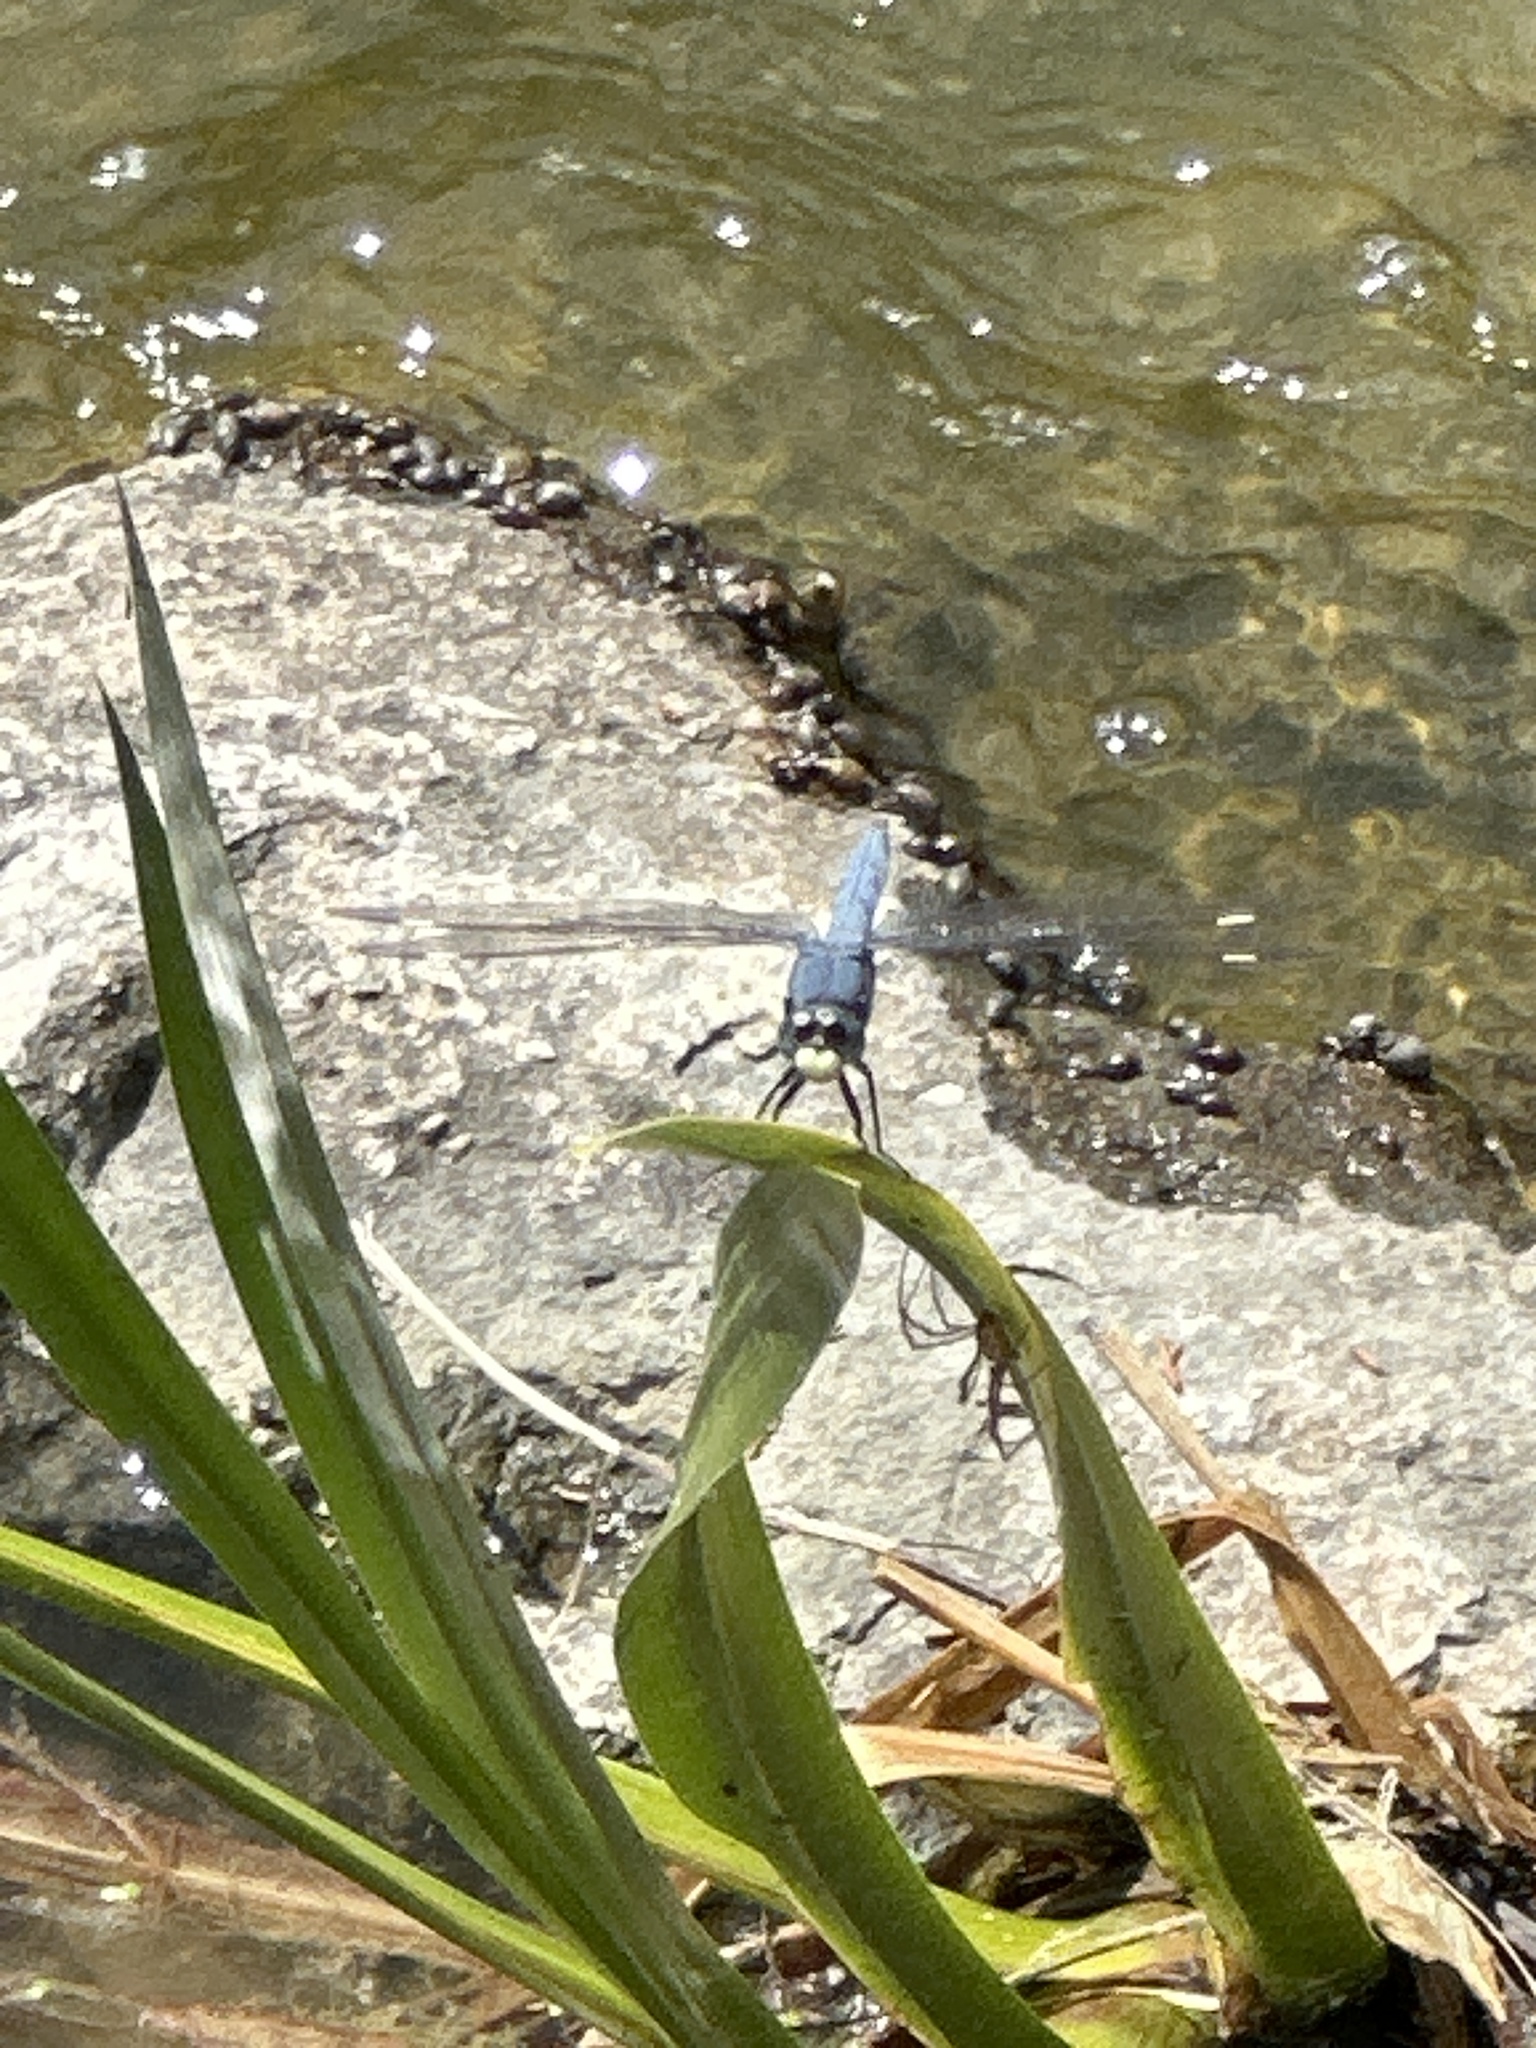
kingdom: Animalia
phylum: Arthropoda
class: Insecta
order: Odonata
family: Libellulidae
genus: Libellula
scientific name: Libellula comanche
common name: Comanche skimmer
